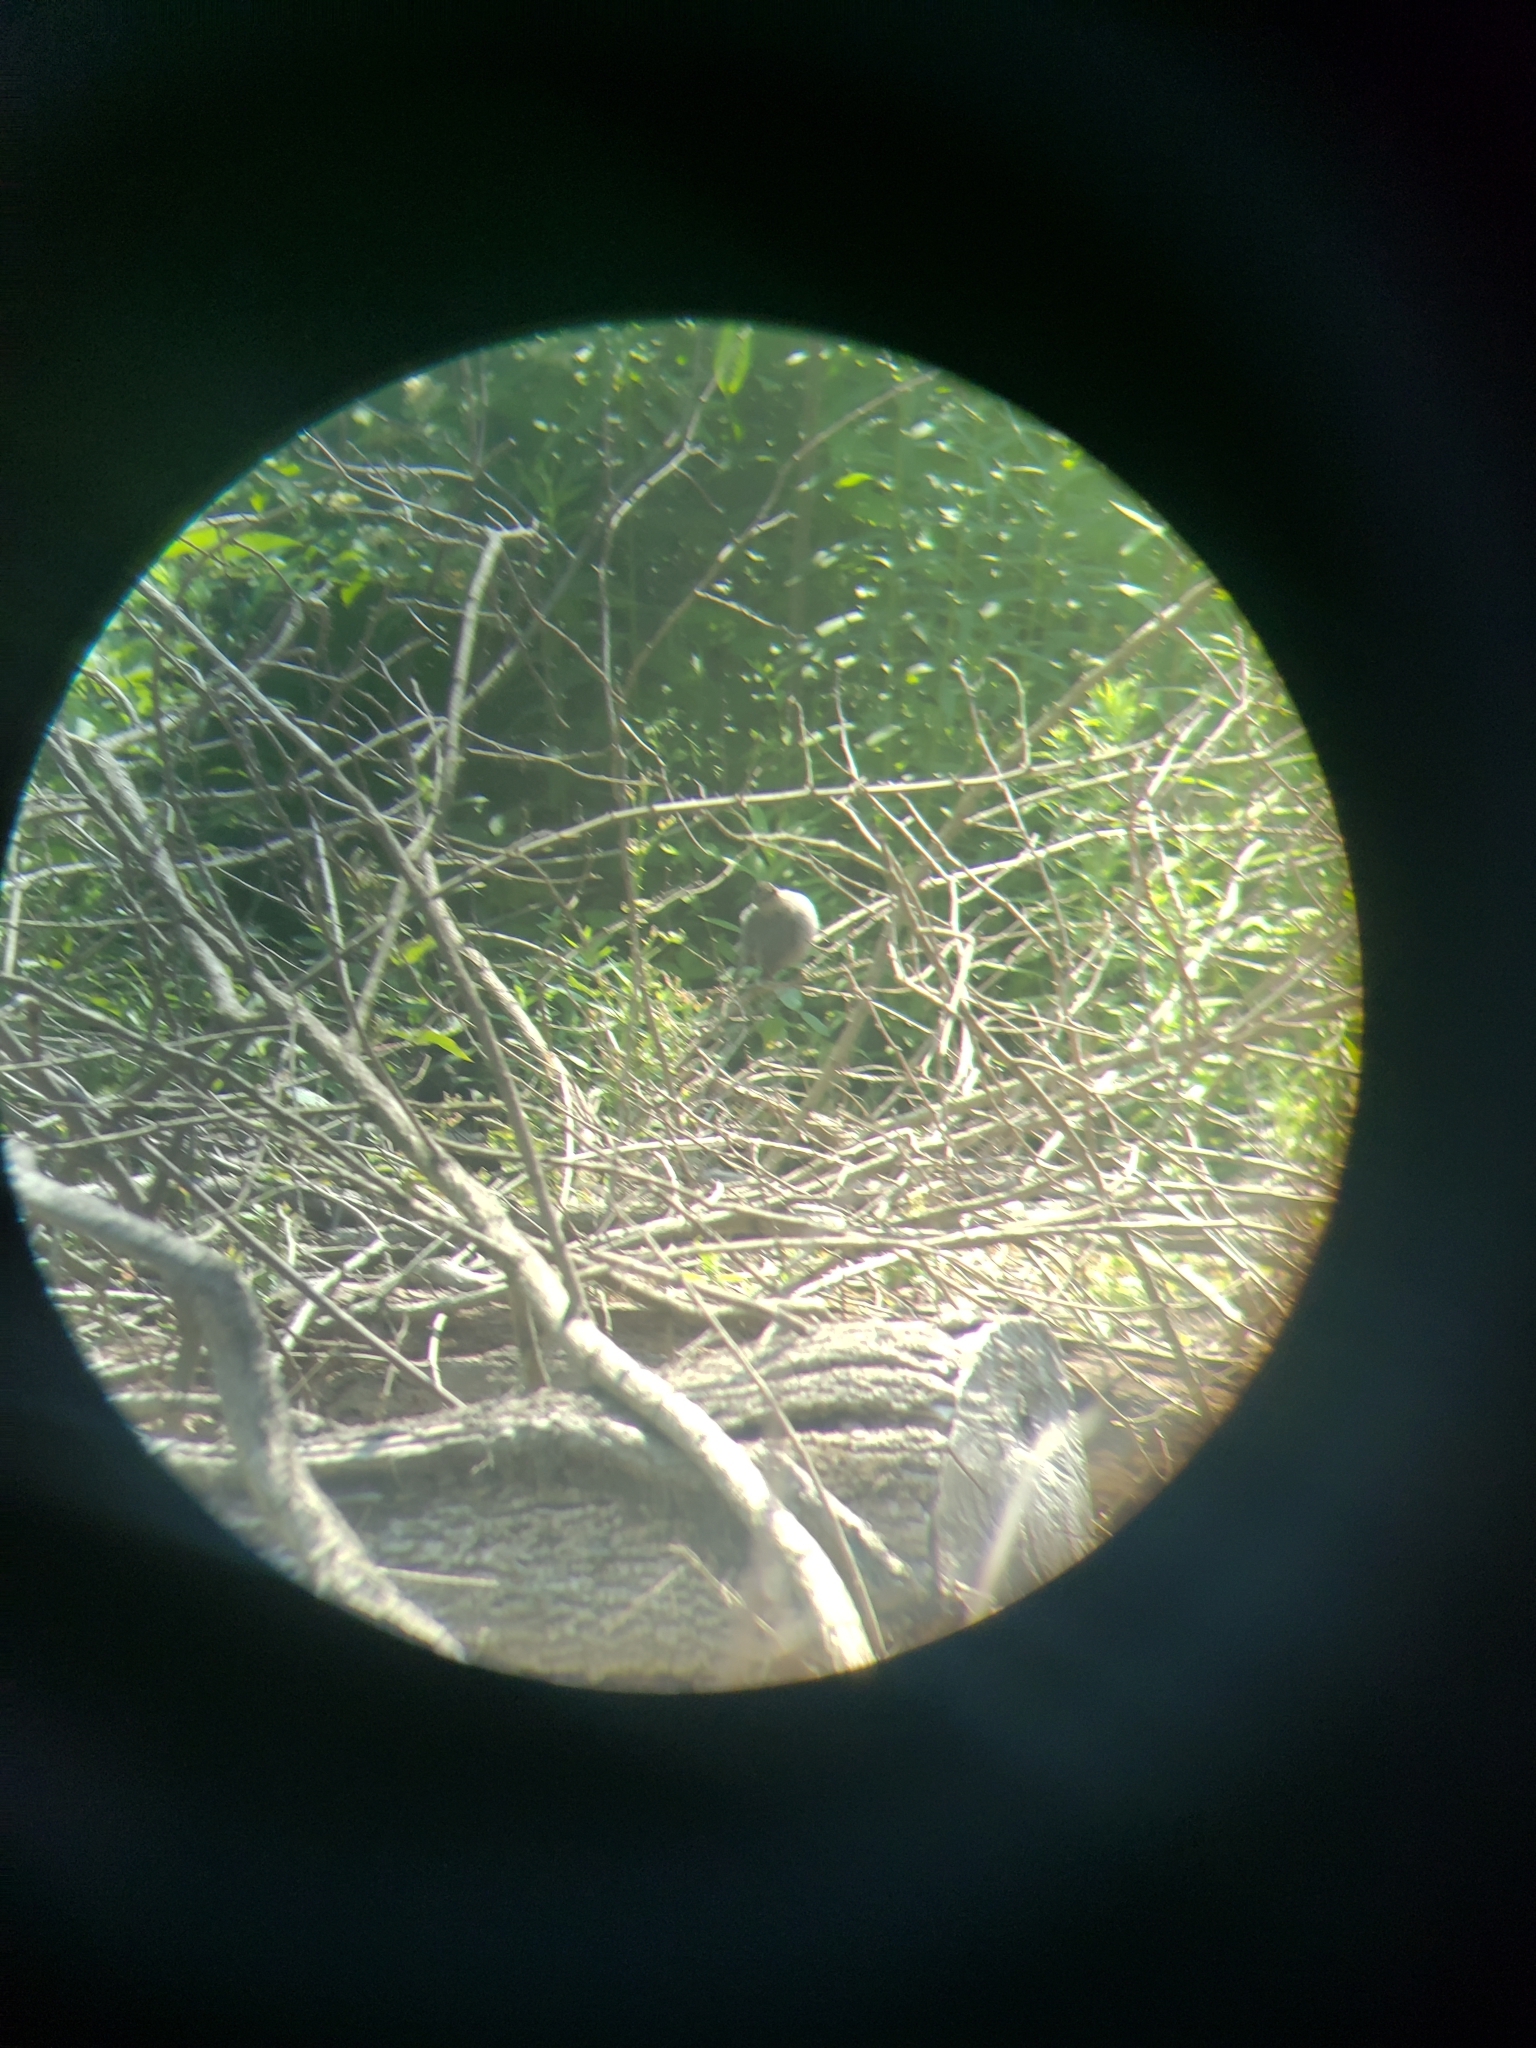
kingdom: Animalia
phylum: Chordata
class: Aves
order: Passeriformes
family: Mimidae
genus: Dumetella
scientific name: Dumetella carolinensis
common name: Gray catbird
